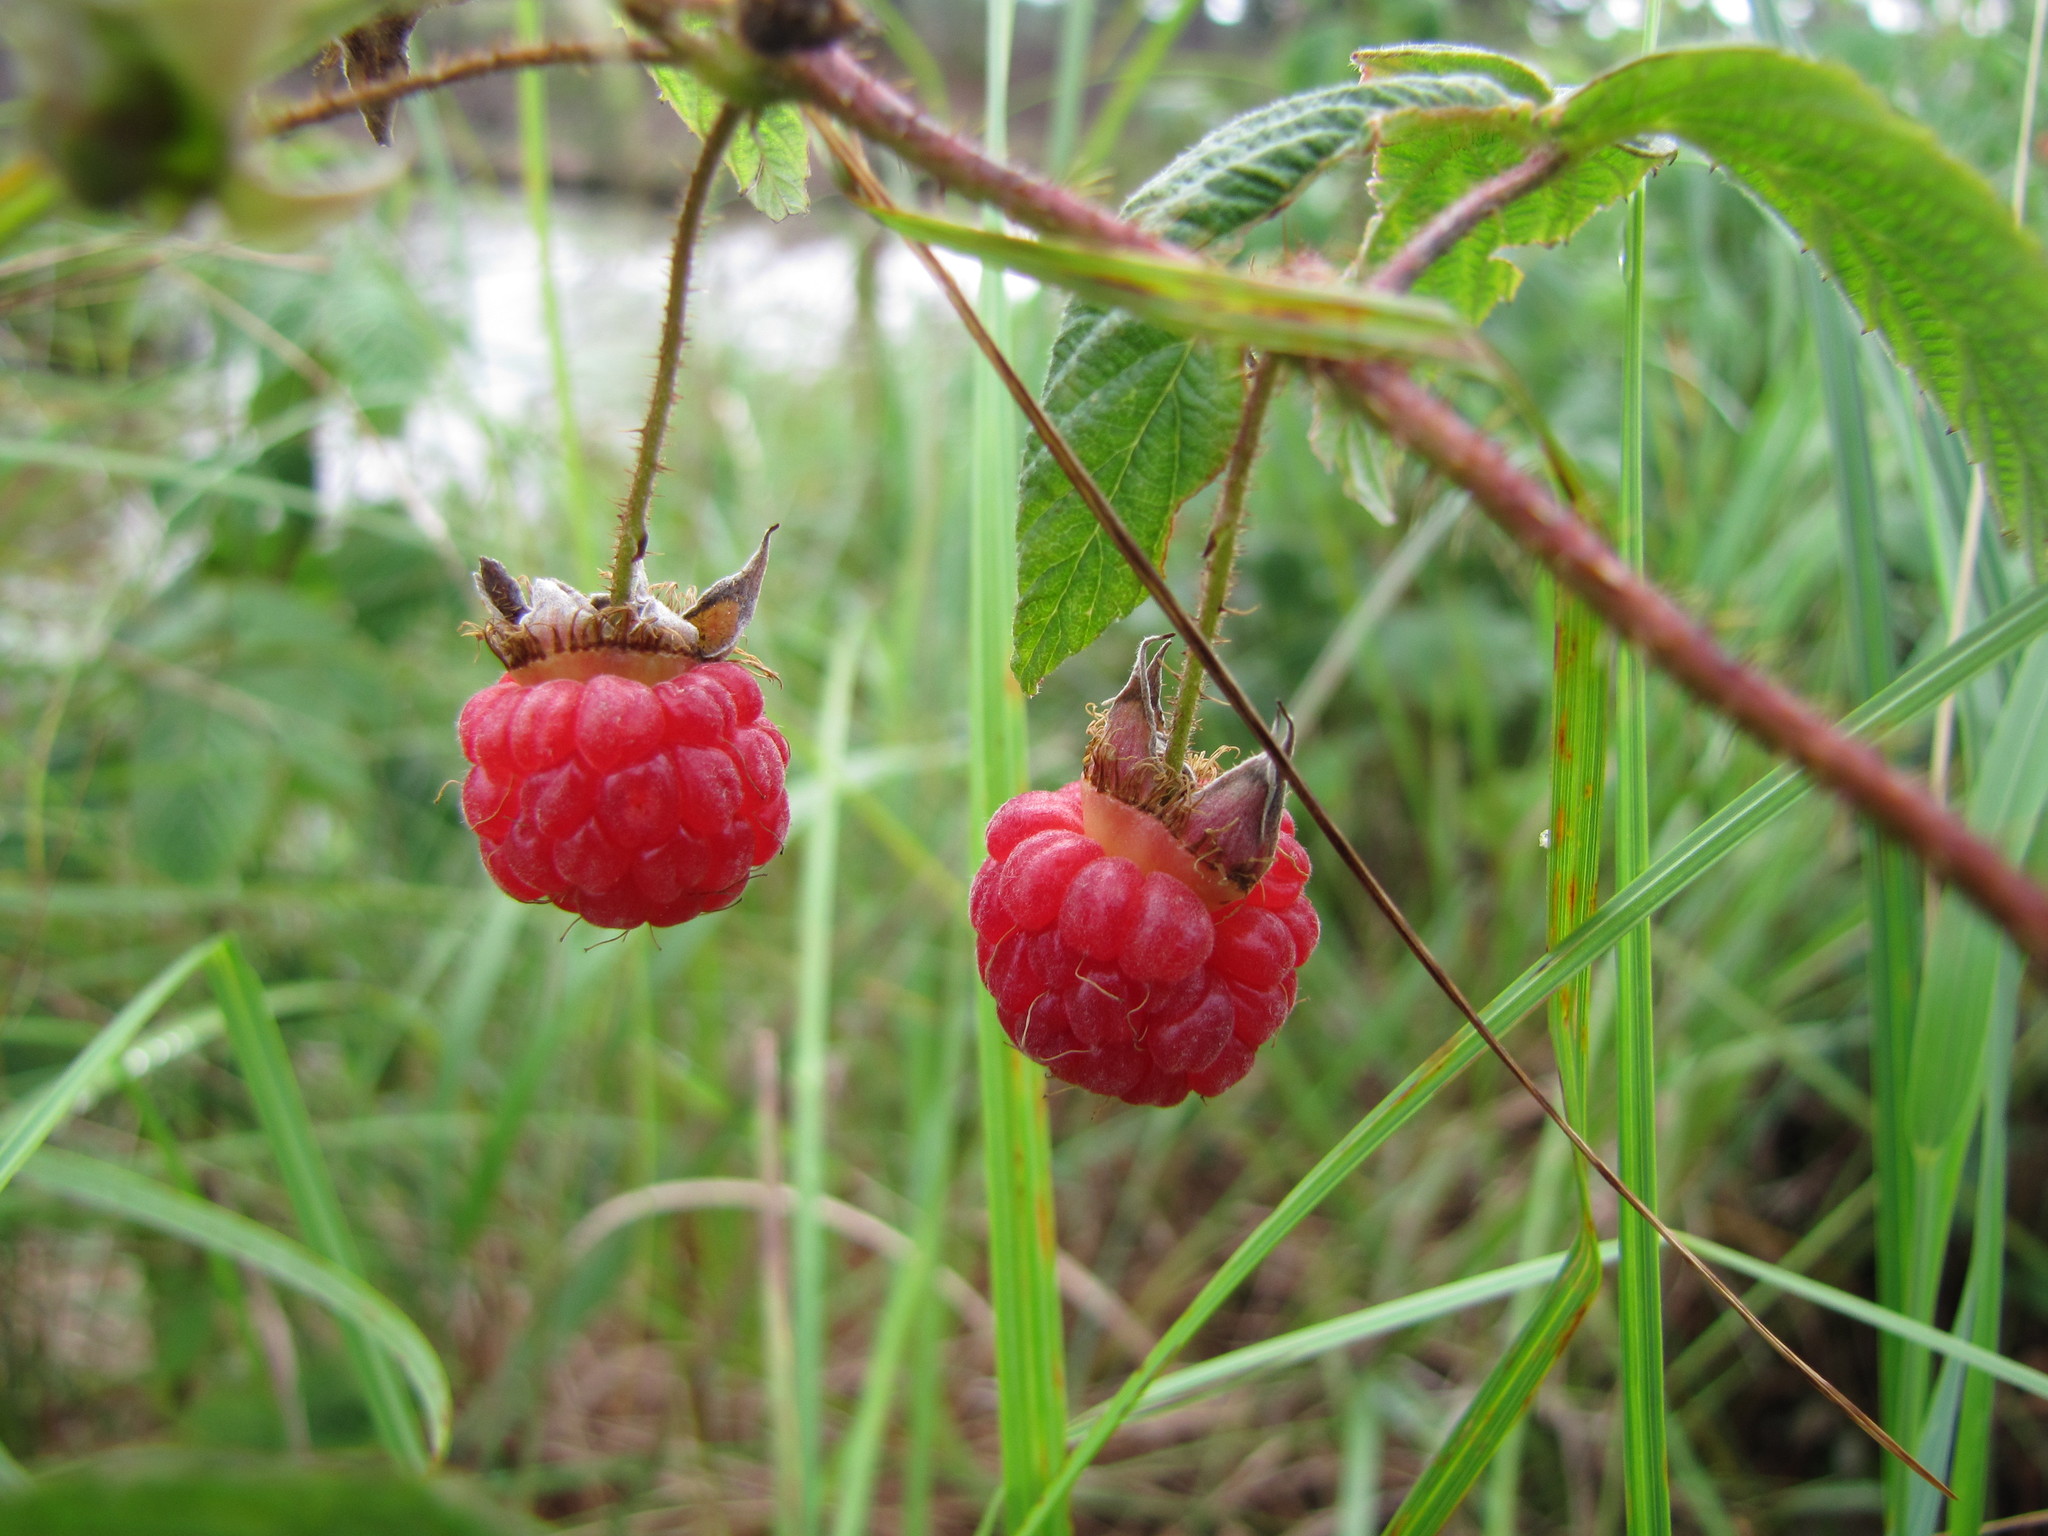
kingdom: Plantae
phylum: Tracheophyta
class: Magnoliopsida
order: Rosales
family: Rosaceae
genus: Rubus
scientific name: Rubus idaeus
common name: Raspberry
